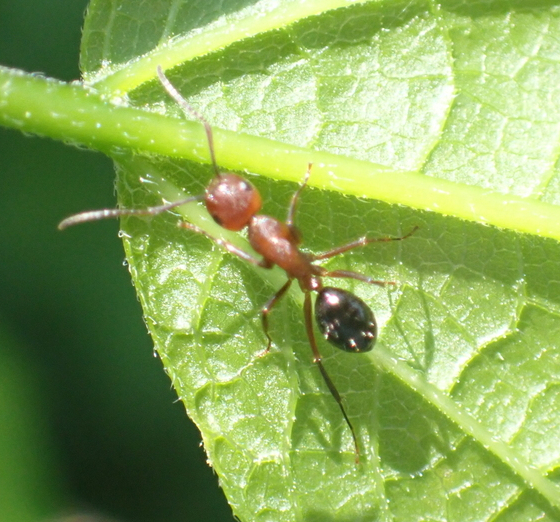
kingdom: Animalia
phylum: Arthropoda
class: Insecta
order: Hymenoptera
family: Formicidae
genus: Camponotus
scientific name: Camponotus decipiens
